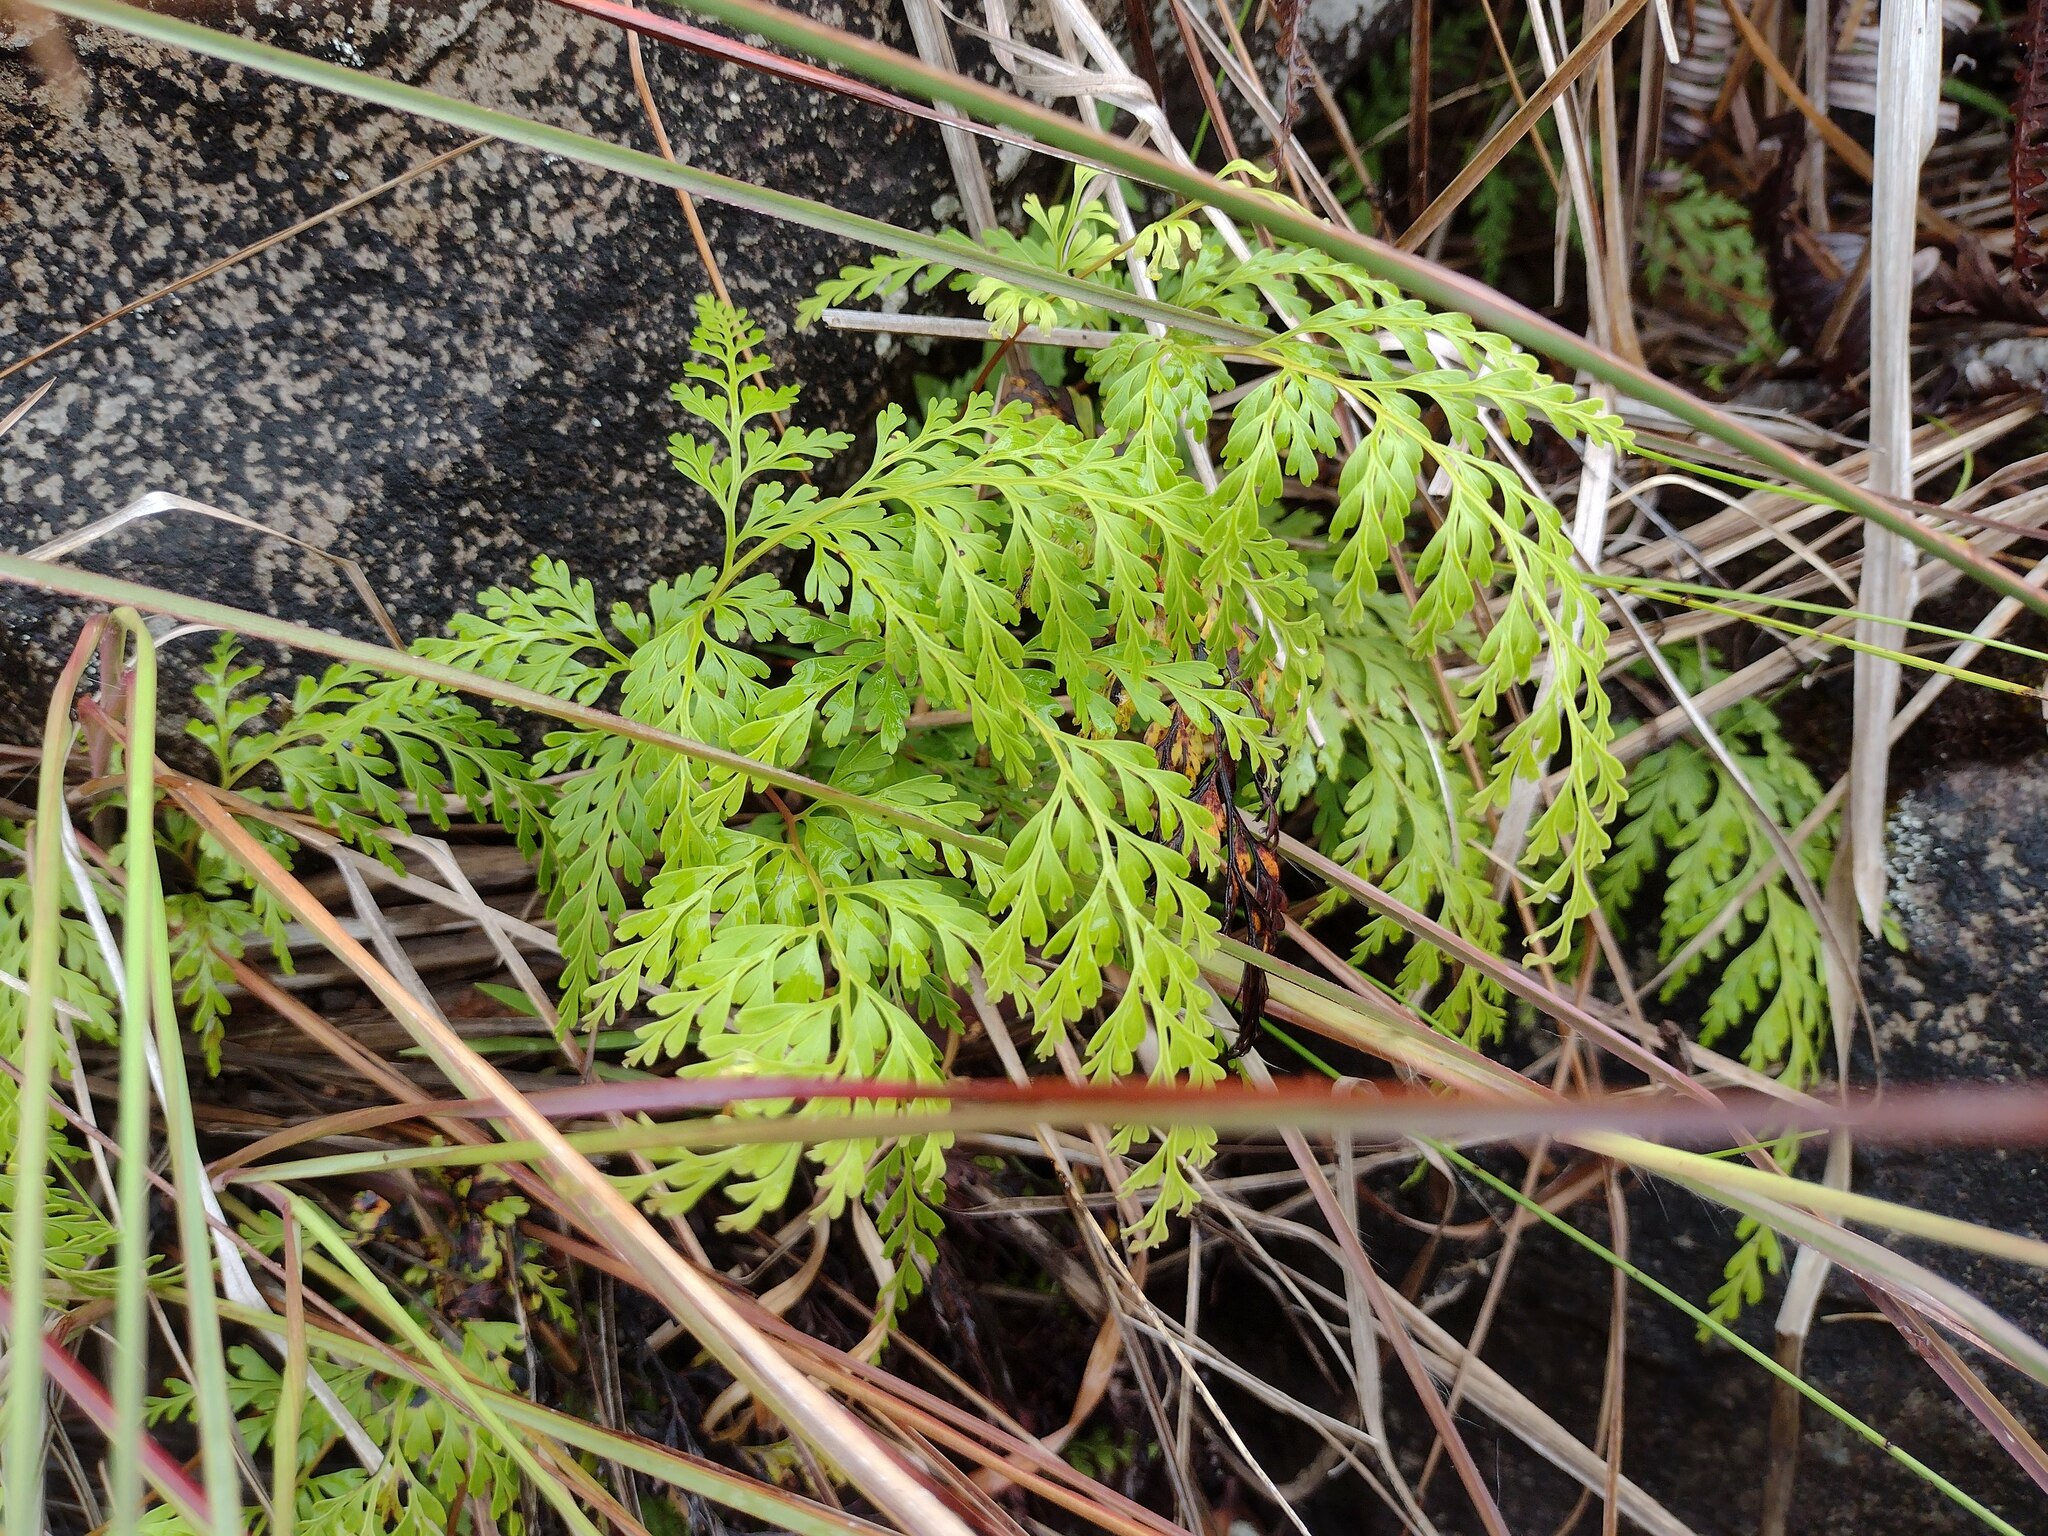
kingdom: Plantae
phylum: Tracheophyta
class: Polypodiopsida
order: Polypodiales
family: Lindsaeaceae
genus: Odontosoria
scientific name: Odontosoria chinensis
